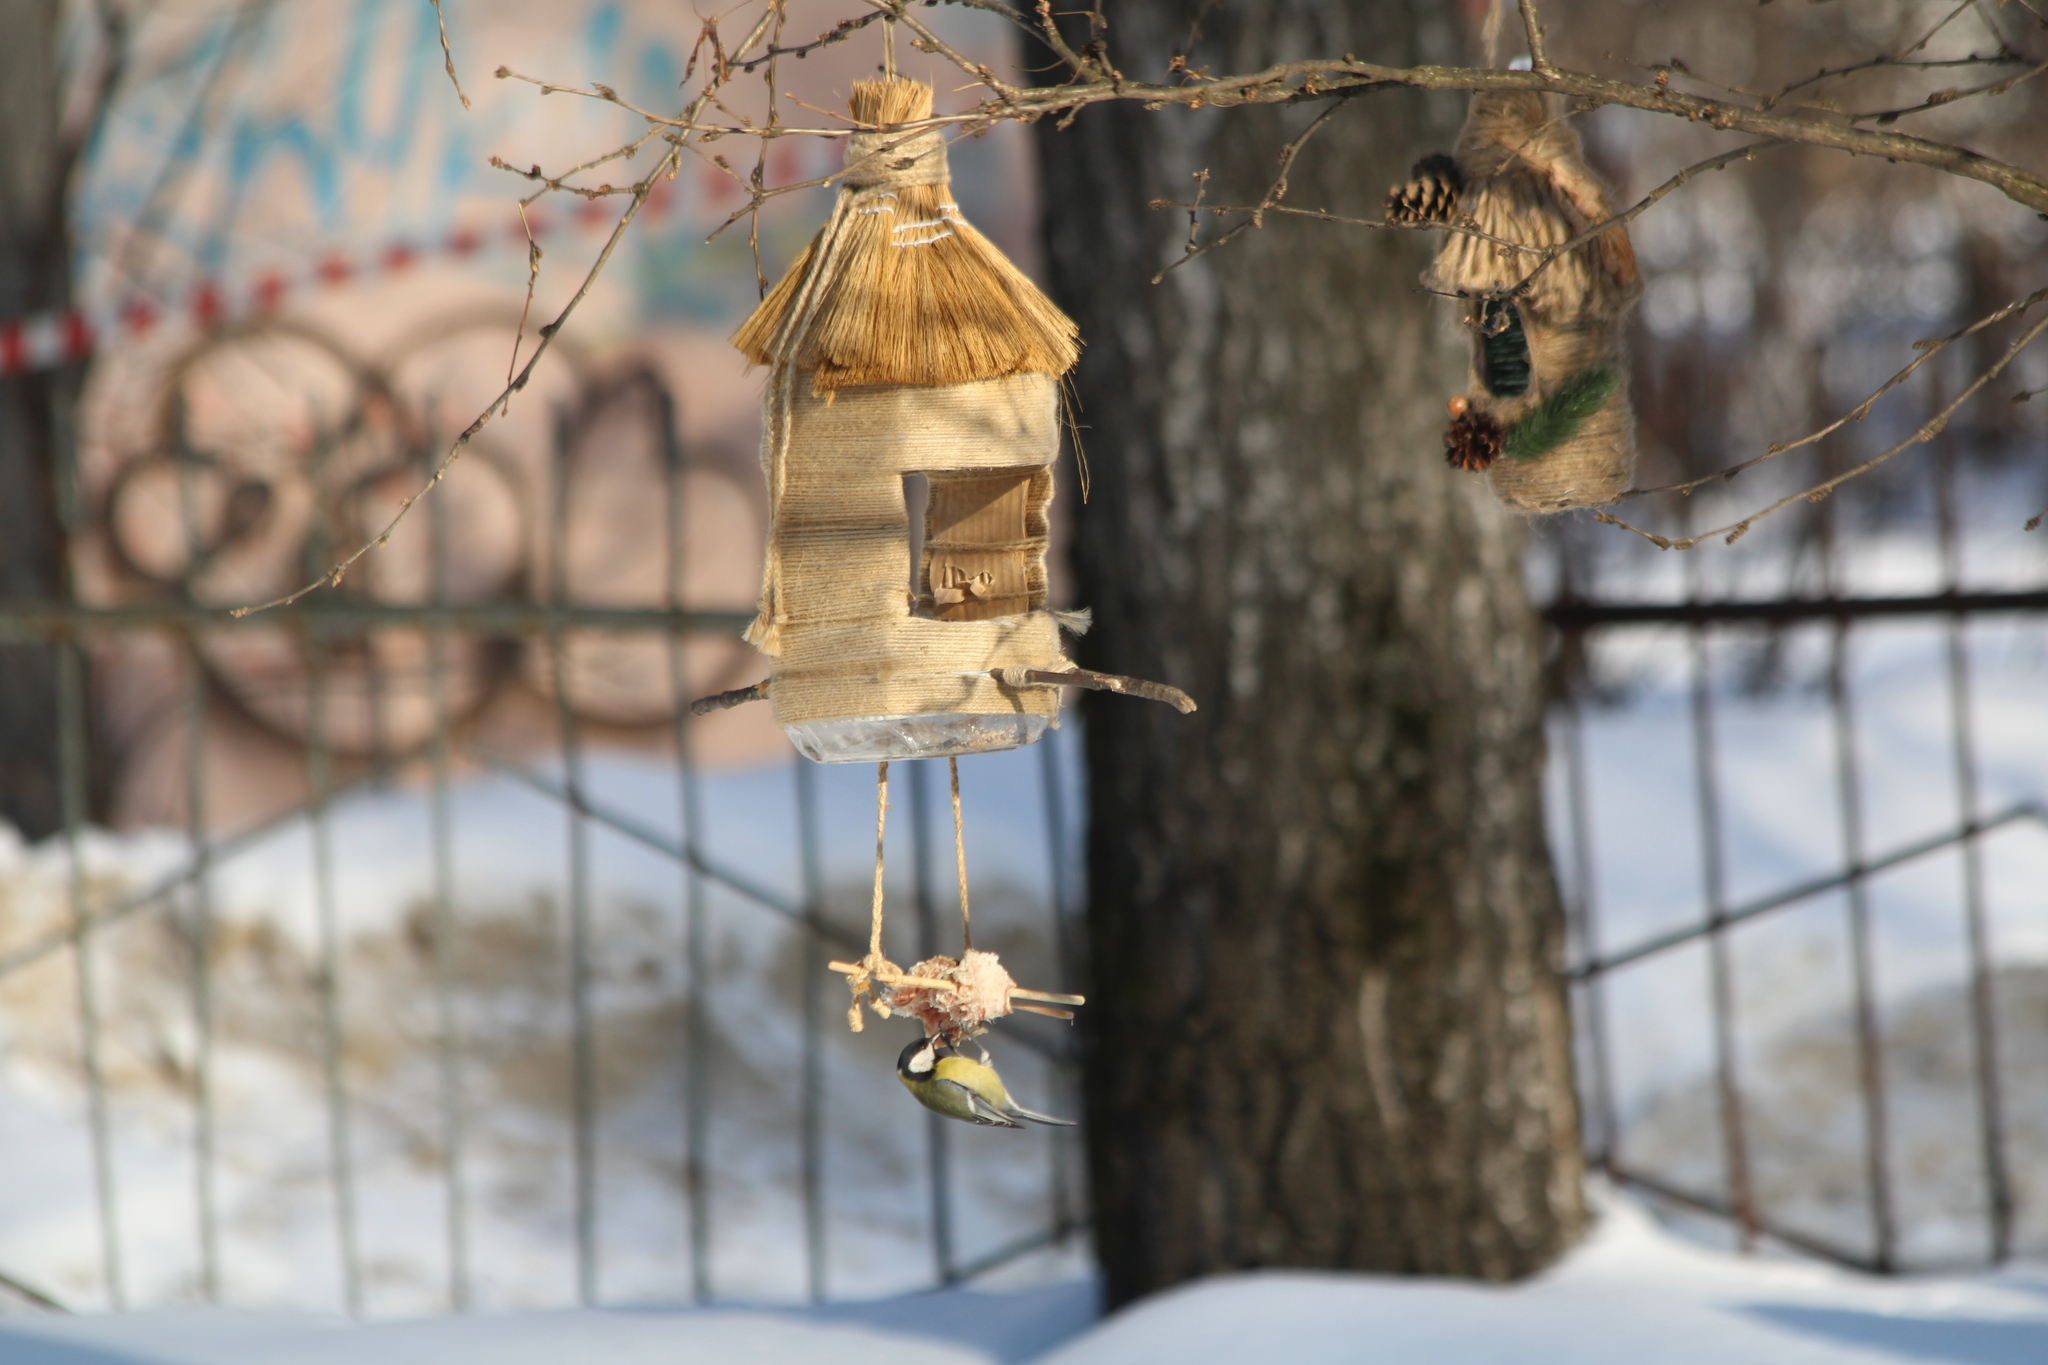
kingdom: Animalia
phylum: Chordata
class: Aves
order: Passeriformes
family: Paridae
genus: Parus
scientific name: Parus major
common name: Great tit
